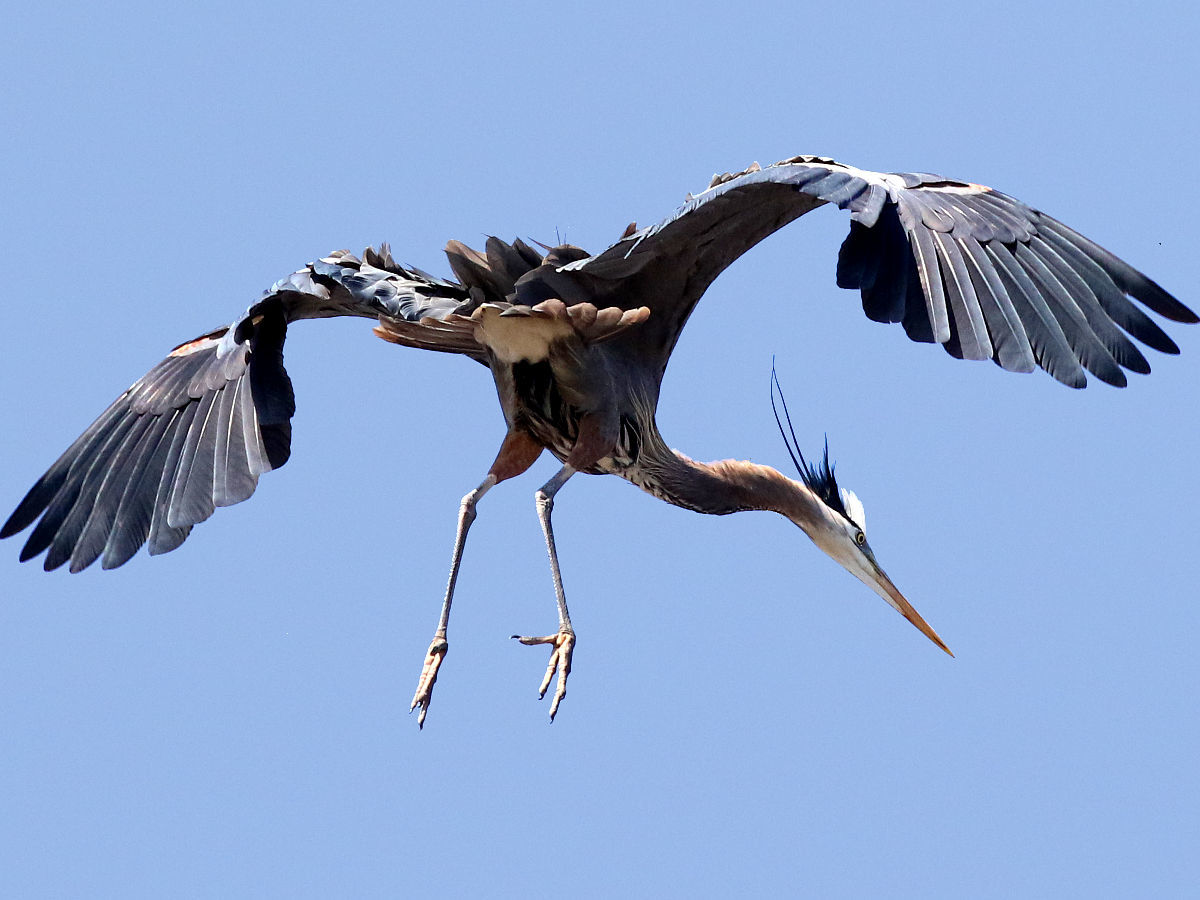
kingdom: Animalia
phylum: Chordata
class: Aves
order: Pelecaniformes
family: Ardeidae
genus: Ardea
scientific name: Ardea herodias
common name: Great blue heron
